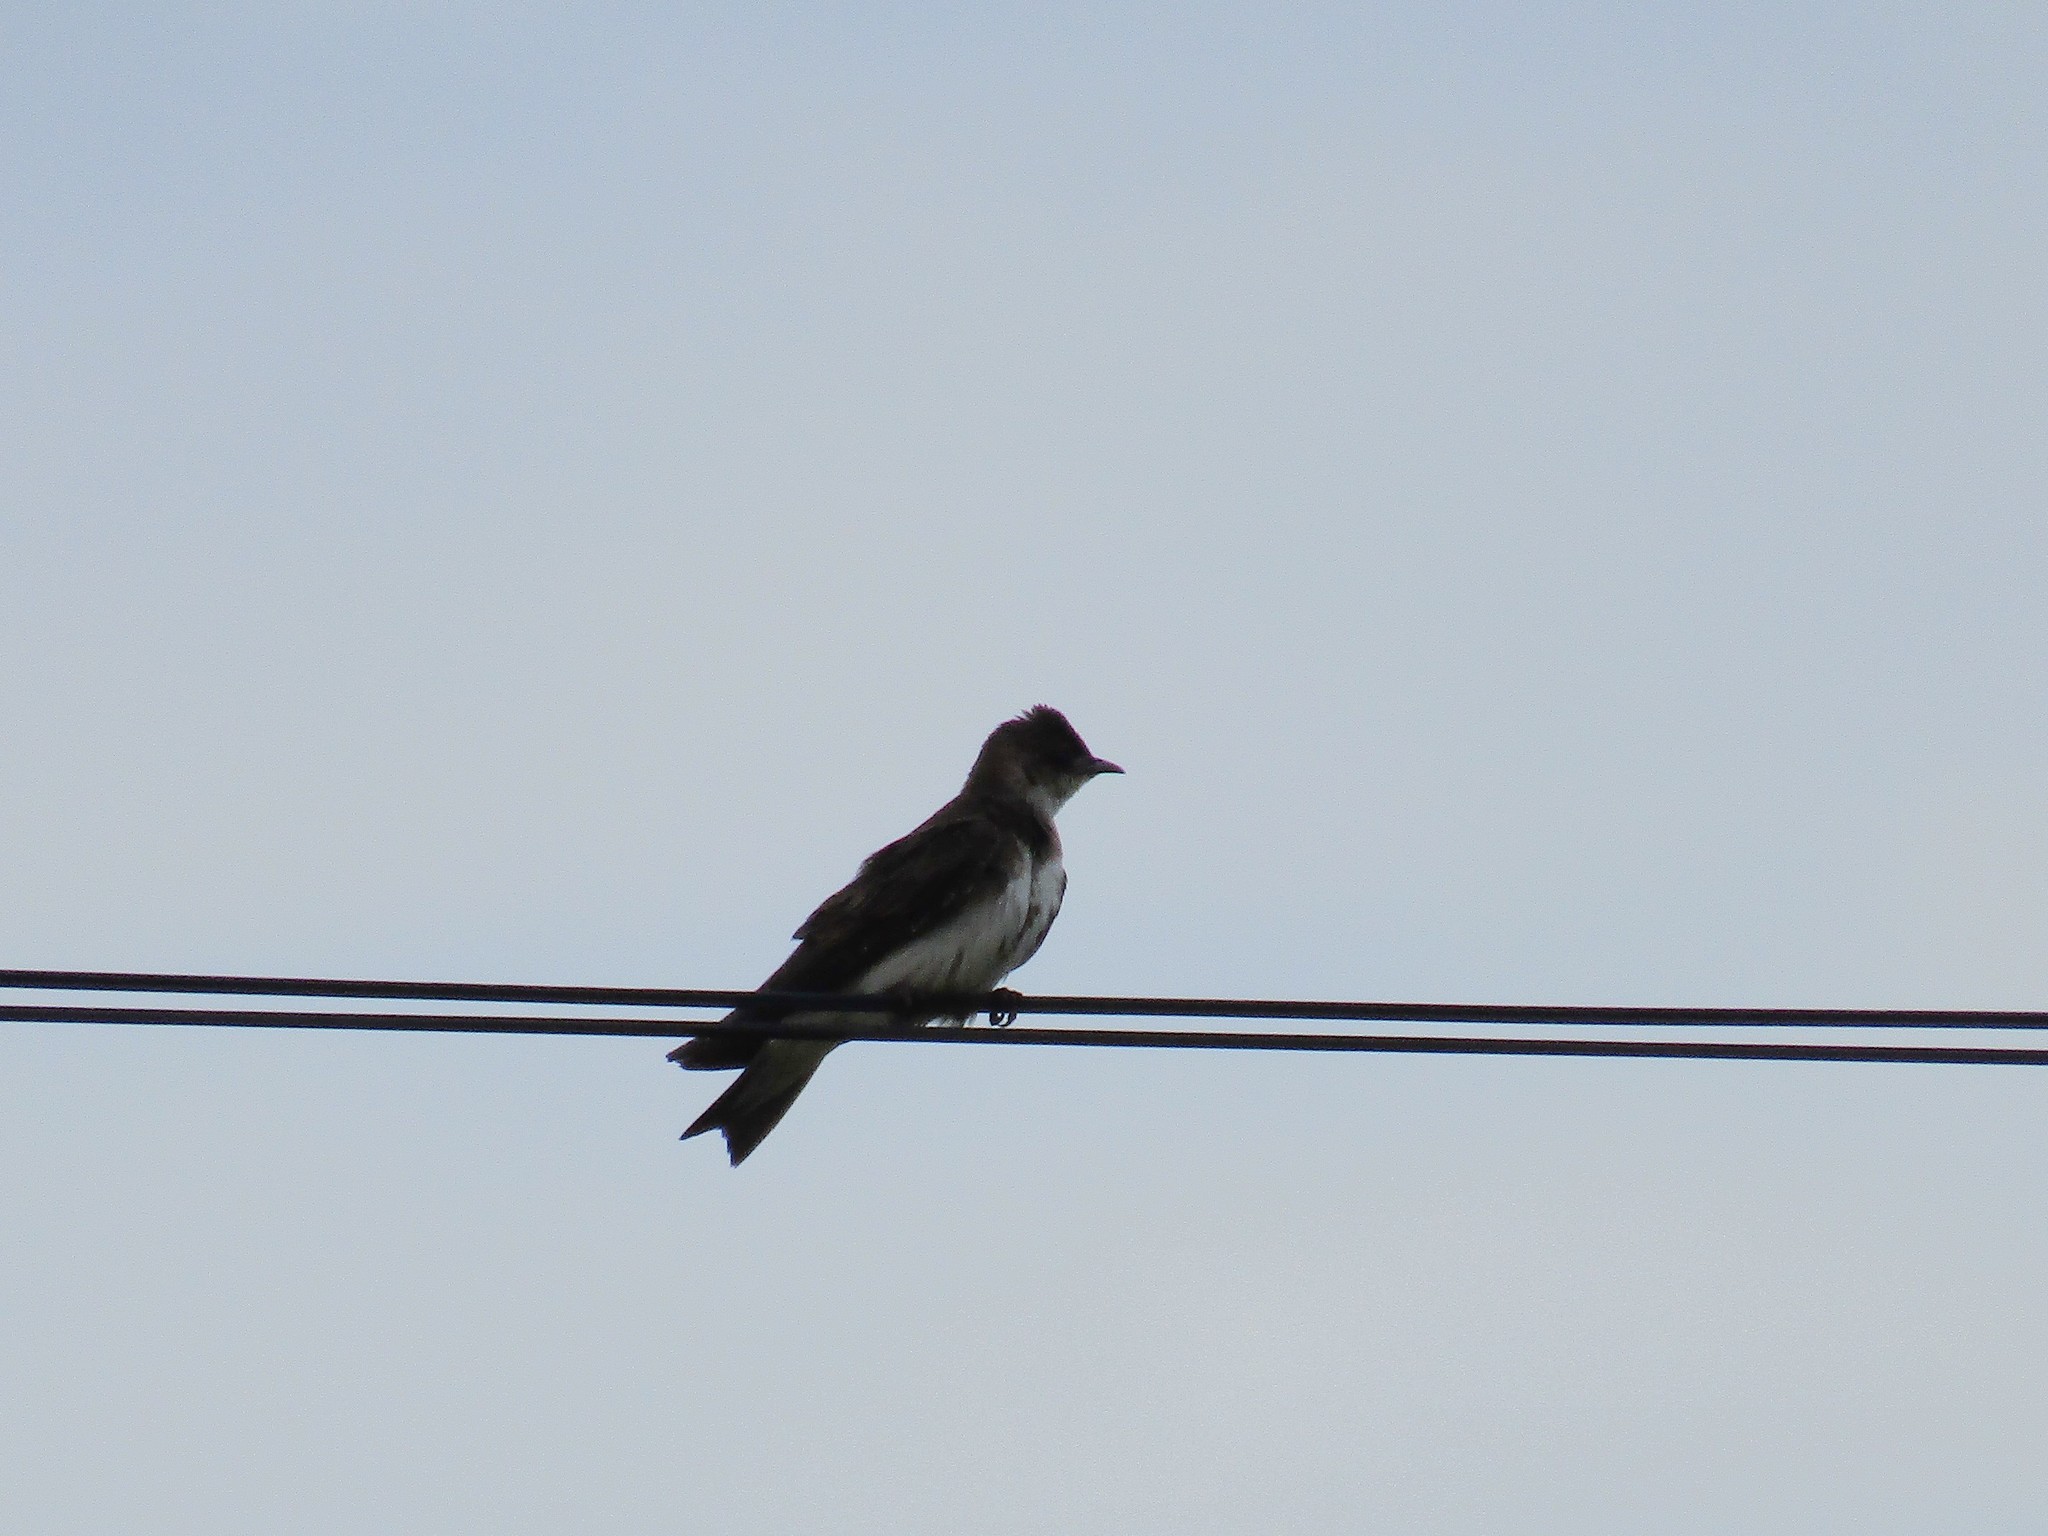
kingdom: Animalia
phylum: Chordata
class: Aves
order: Passeriformes
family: Hirundinidae
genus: Progne
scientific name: Progne tapera
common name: Brown-chested martin
